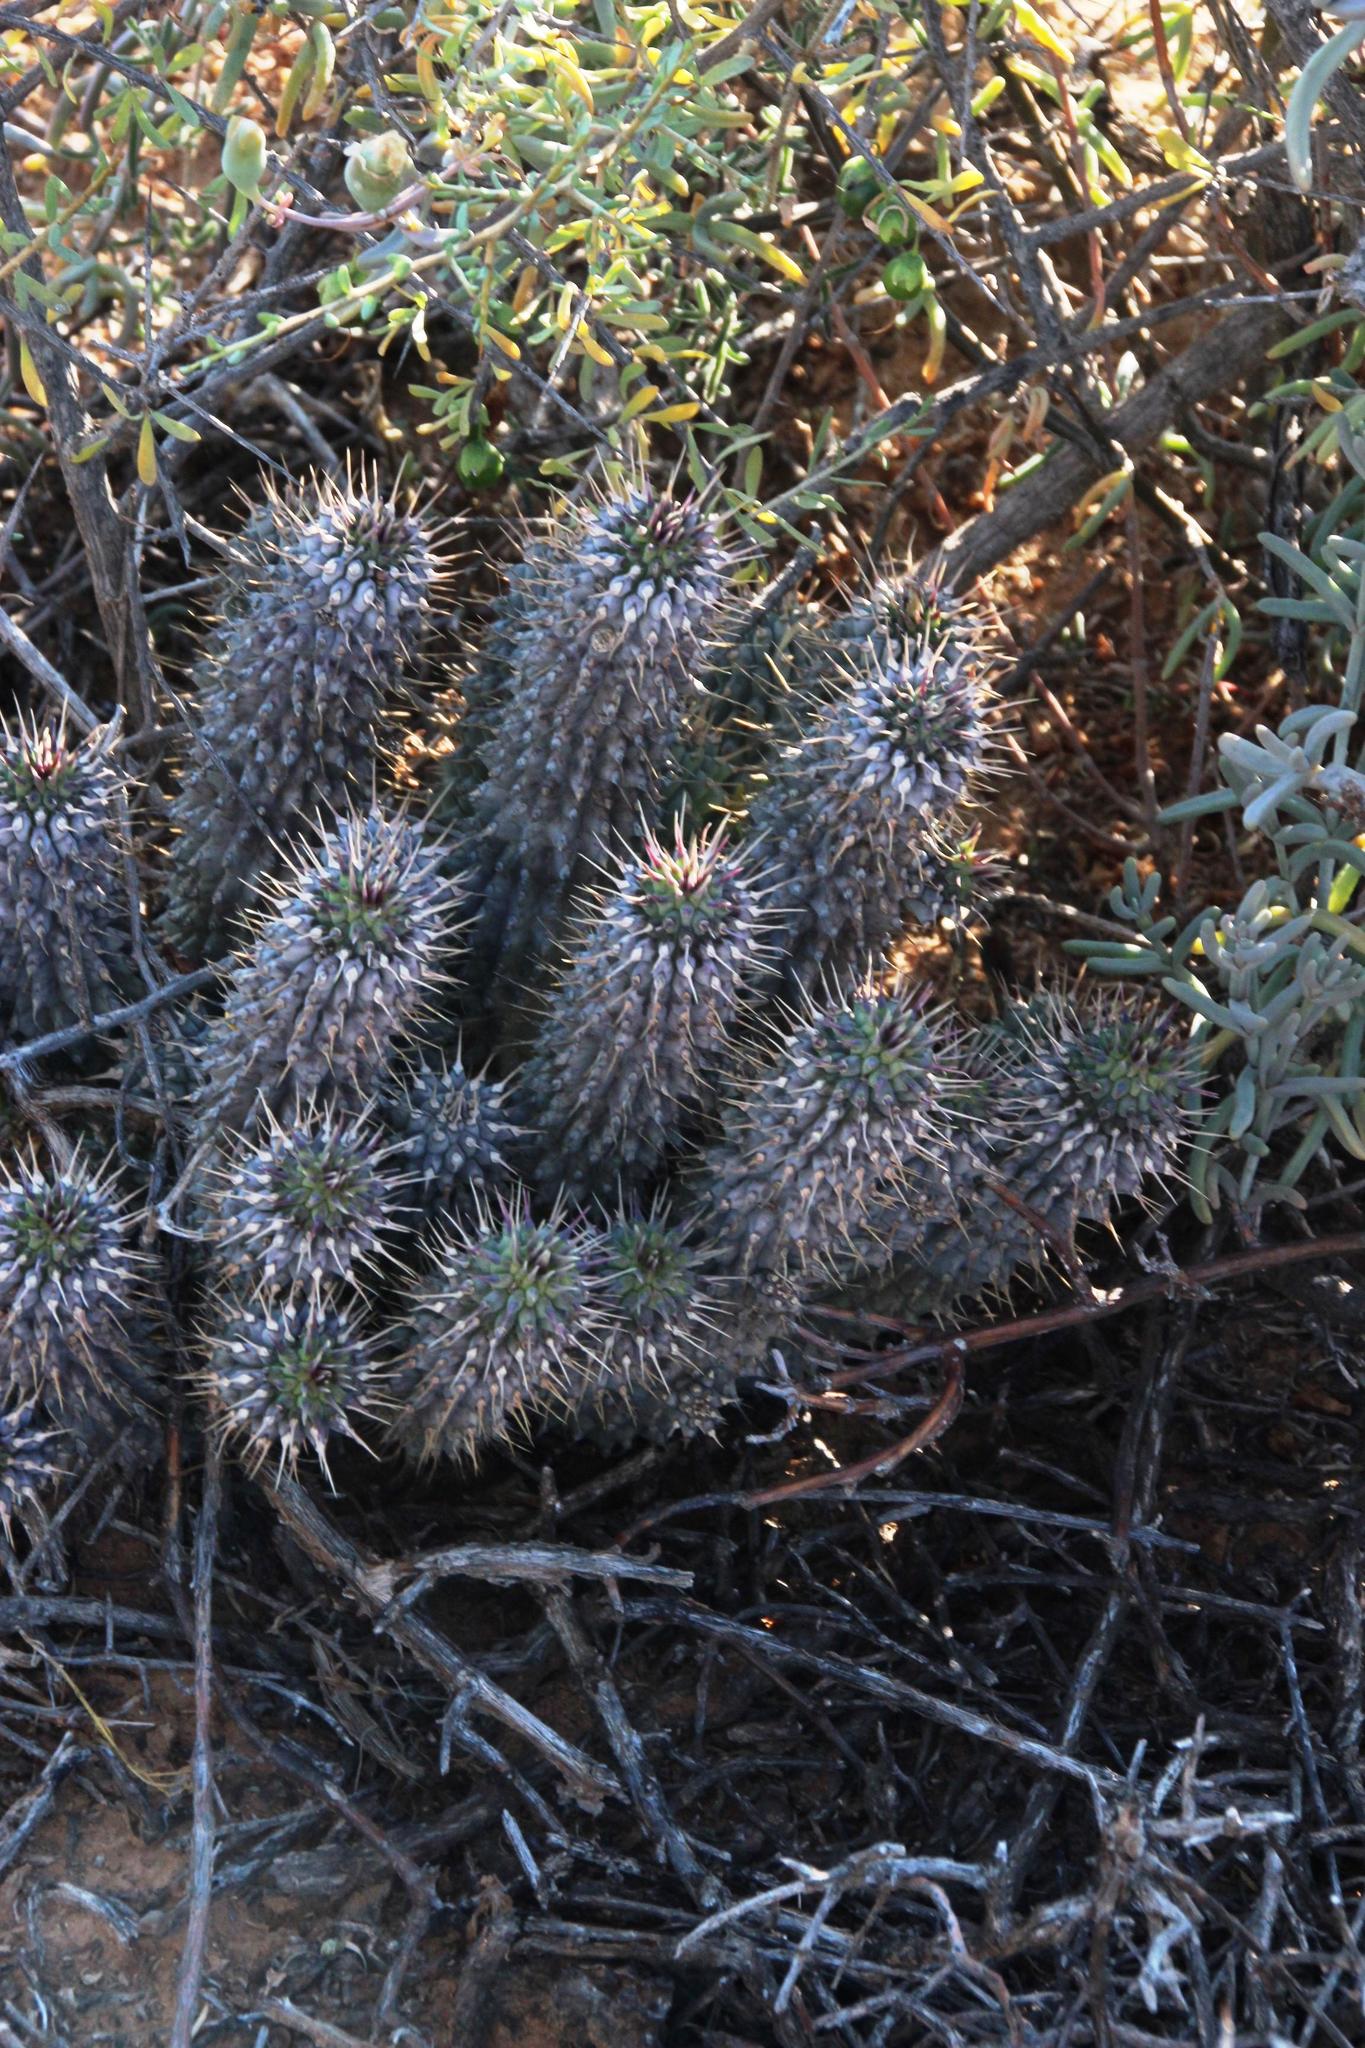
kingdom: Plantae
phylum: Tracheophyta
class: Magnoliopsida
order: Gentianales
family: Apocynaceae
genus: Hoodia
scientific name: Hoodia gordonii
